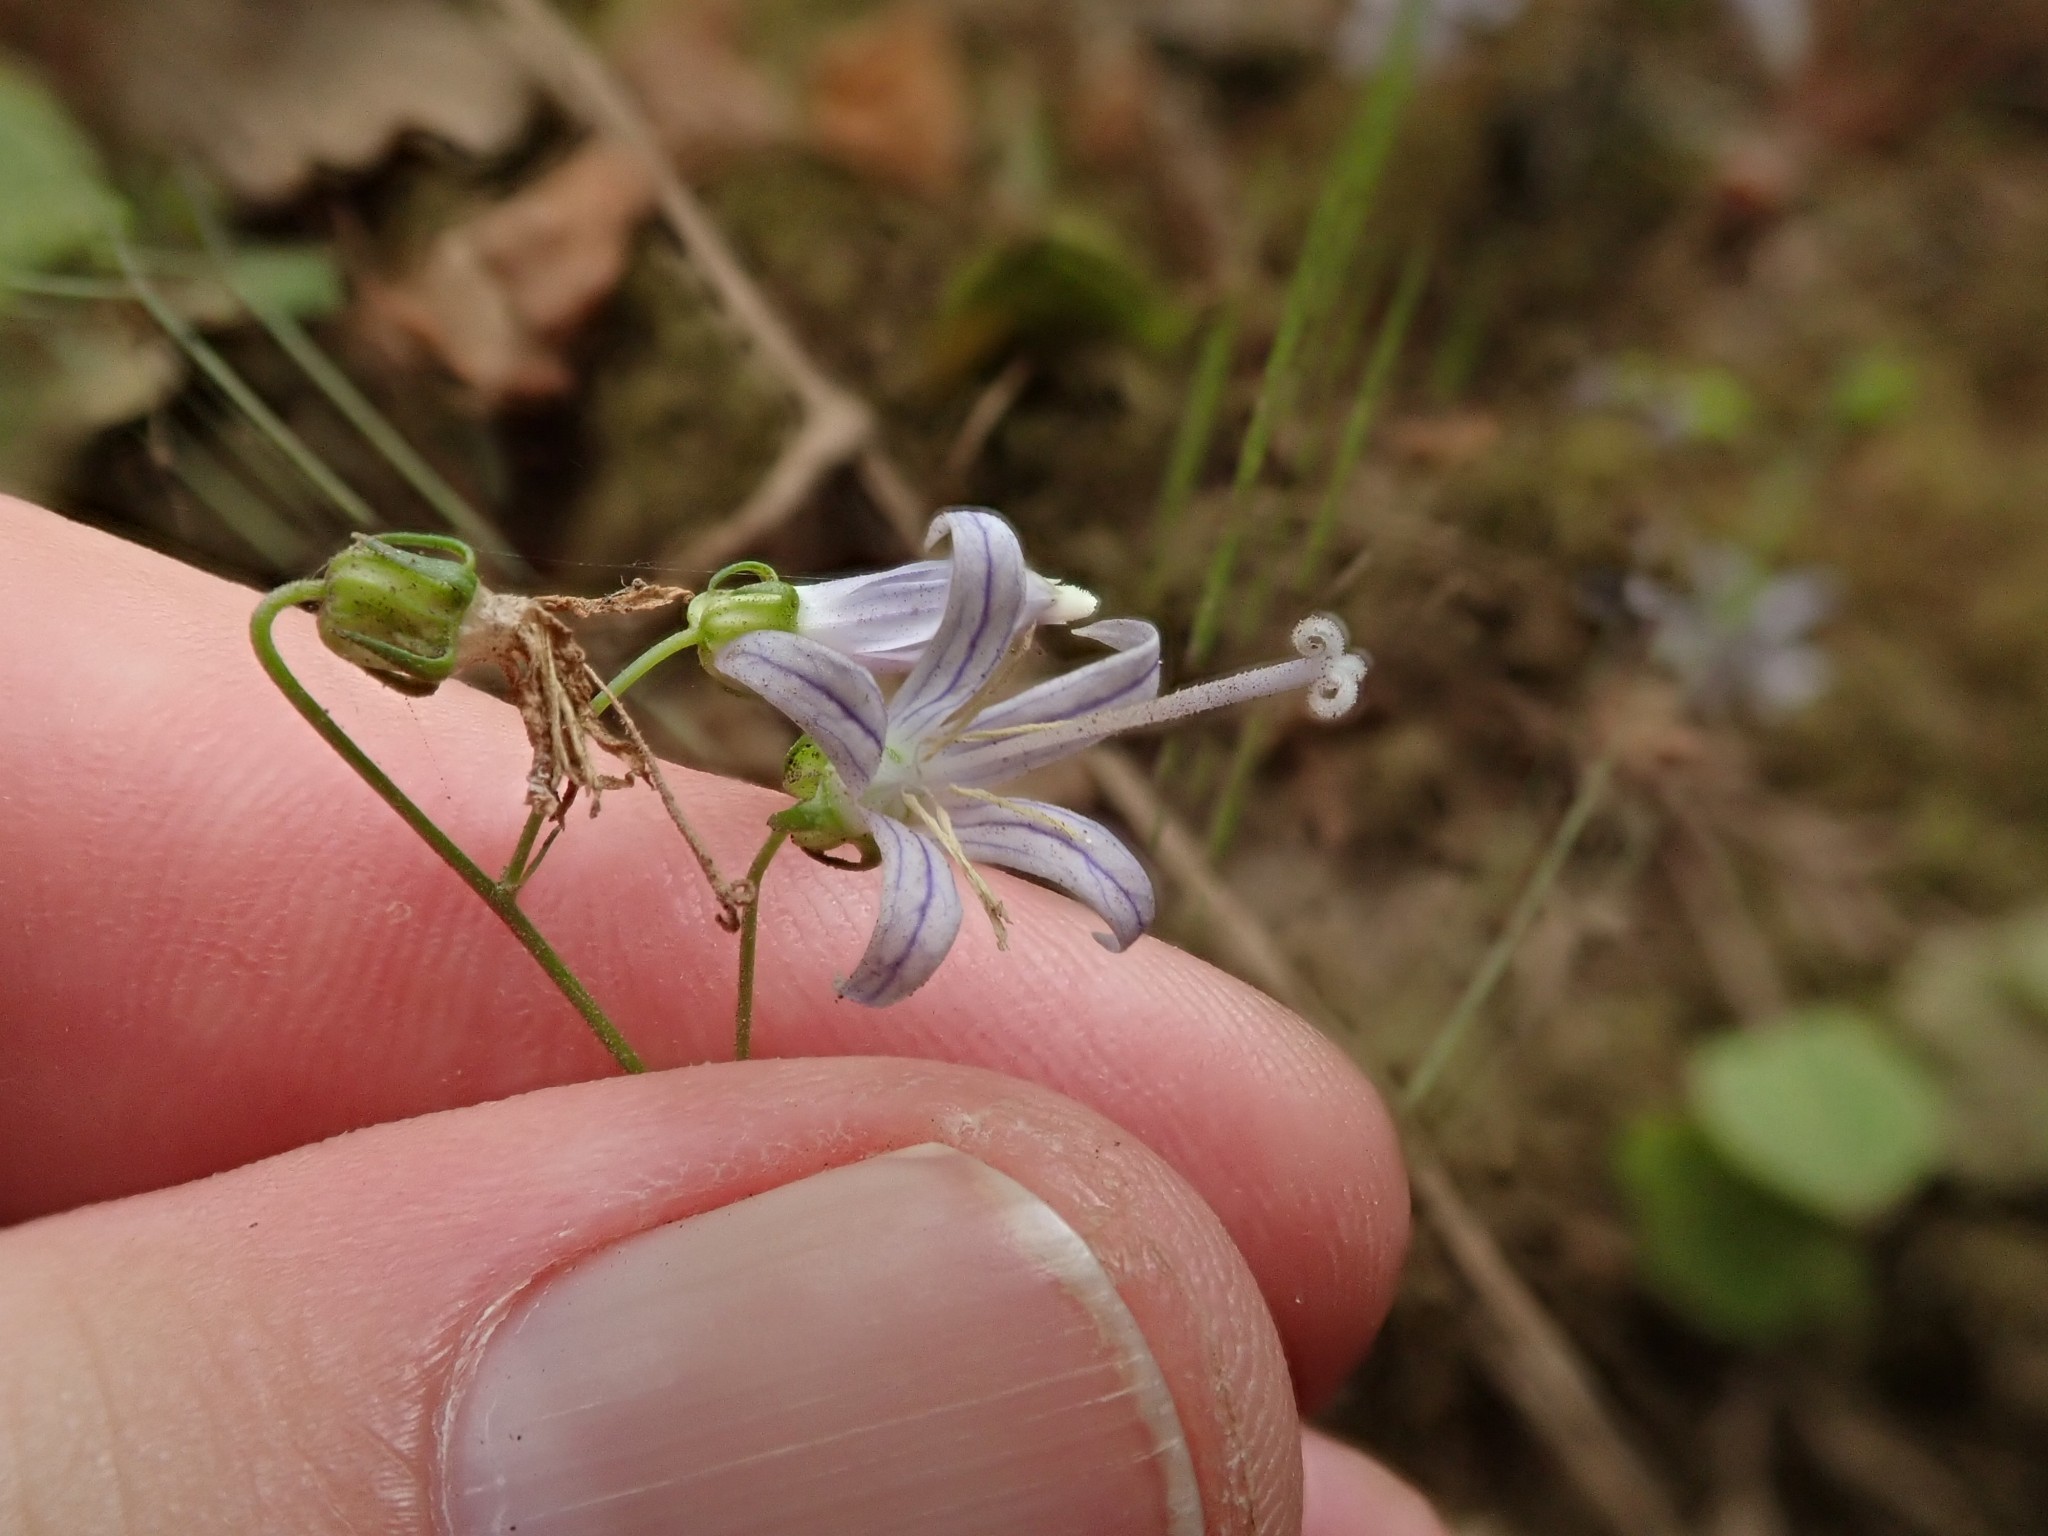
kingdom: Plantae
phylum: Tracheophyta
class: Magnoliopsida
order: Asterales
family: Campanulaceae
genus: Smithiastrum
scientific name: Smithiastrum prenanthoides
